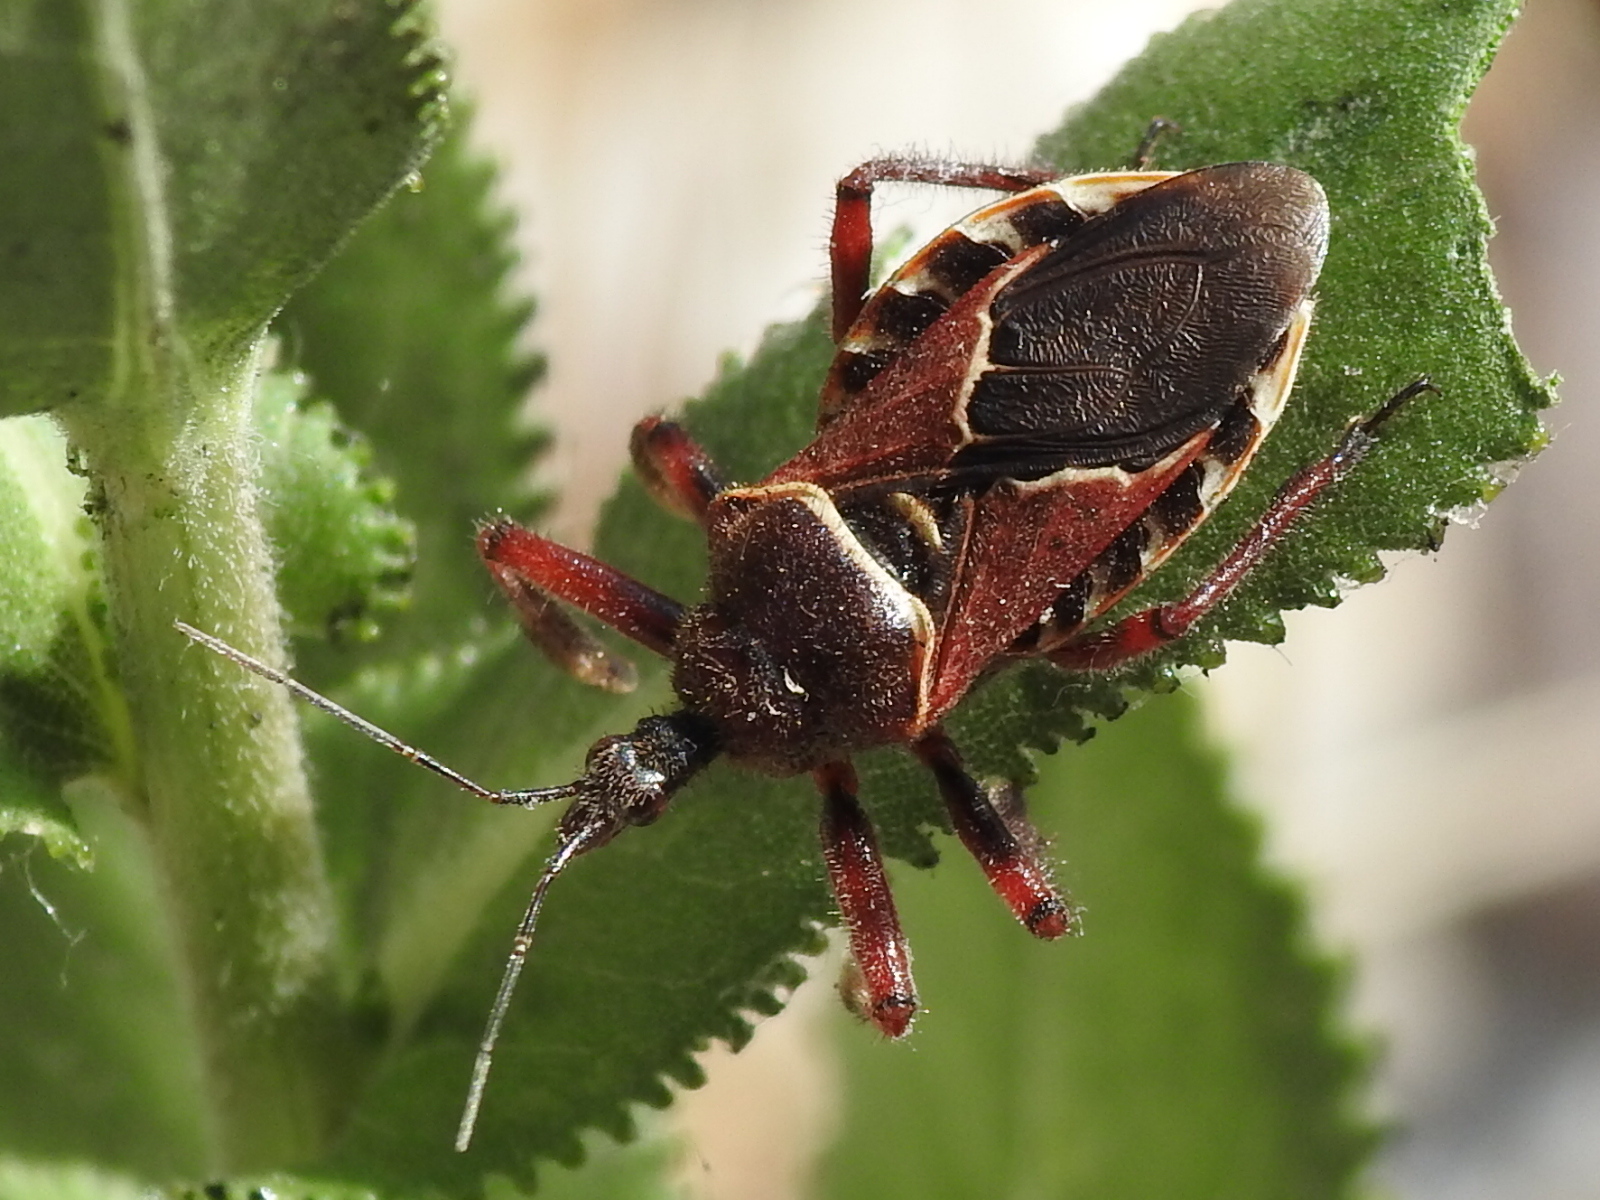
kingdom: Animalia
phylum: Arthropoda
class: Insecta
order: Hemiptera
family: Reduviidae
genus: Apiomerus
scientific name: Apiomerus spissipes
